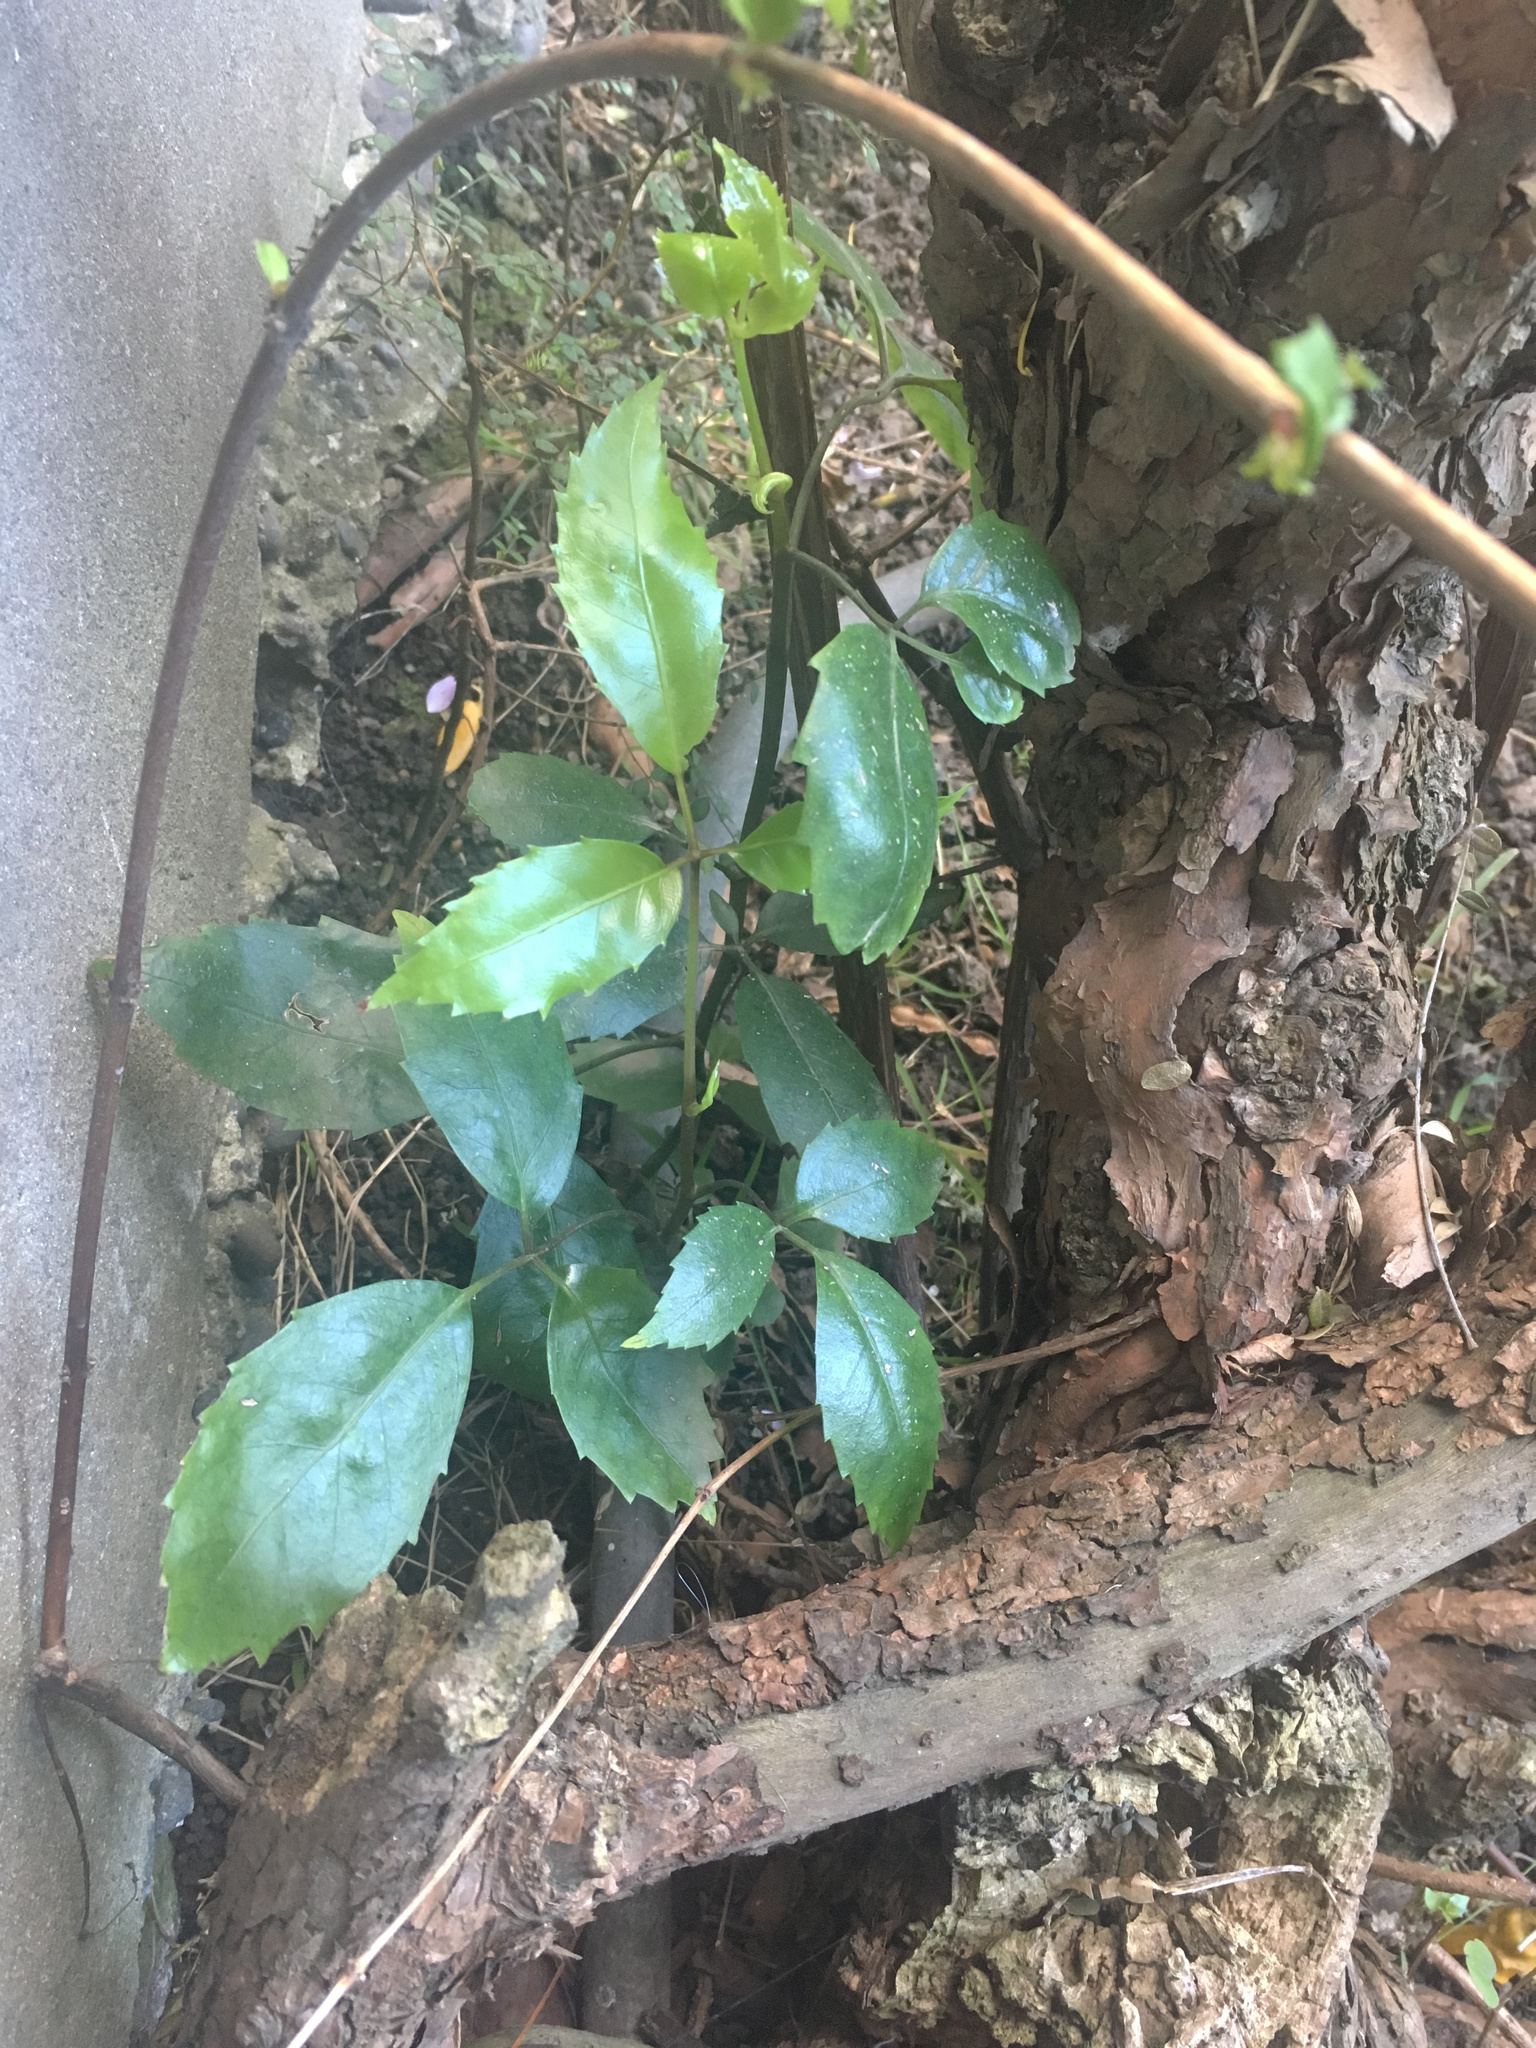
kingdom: Plantae
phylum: Tracheophyta
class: Magnoliopsida
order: Apiales
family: Araliaceae
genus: Neopanax
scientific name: Neopanax arboreus
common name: Five-fingers
